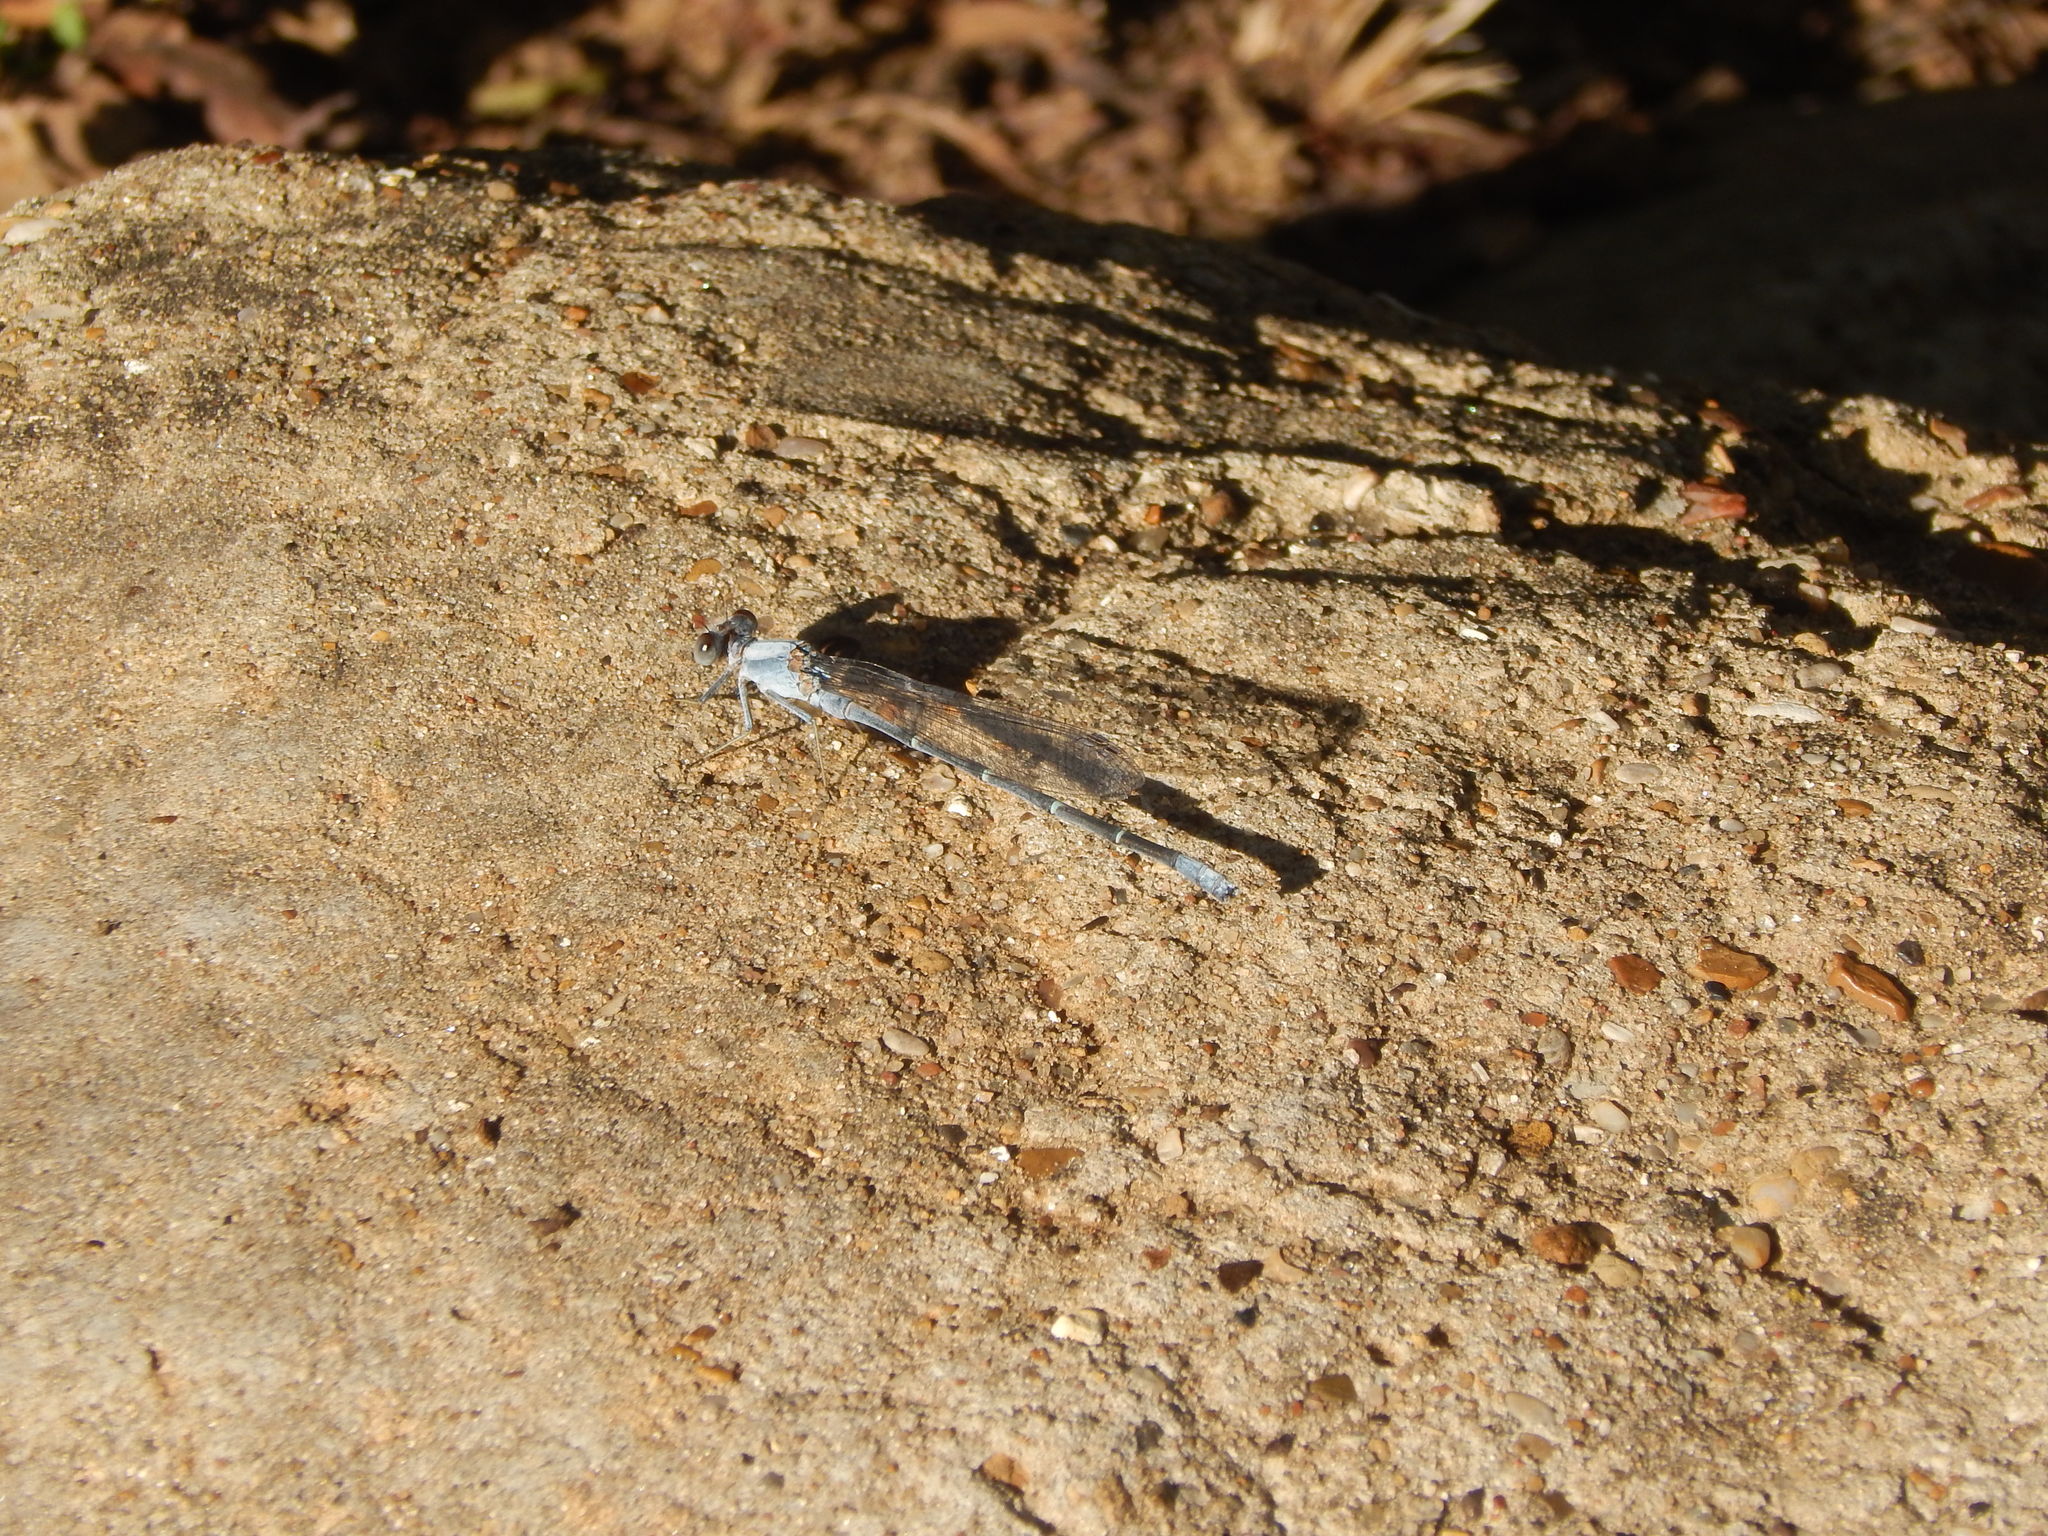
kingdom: Animalia
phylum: Arthropoda
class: Insecta
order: Odonata
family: Coenagrionidae
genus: Argia
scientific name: Argia moesta
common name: Powdered dancer
